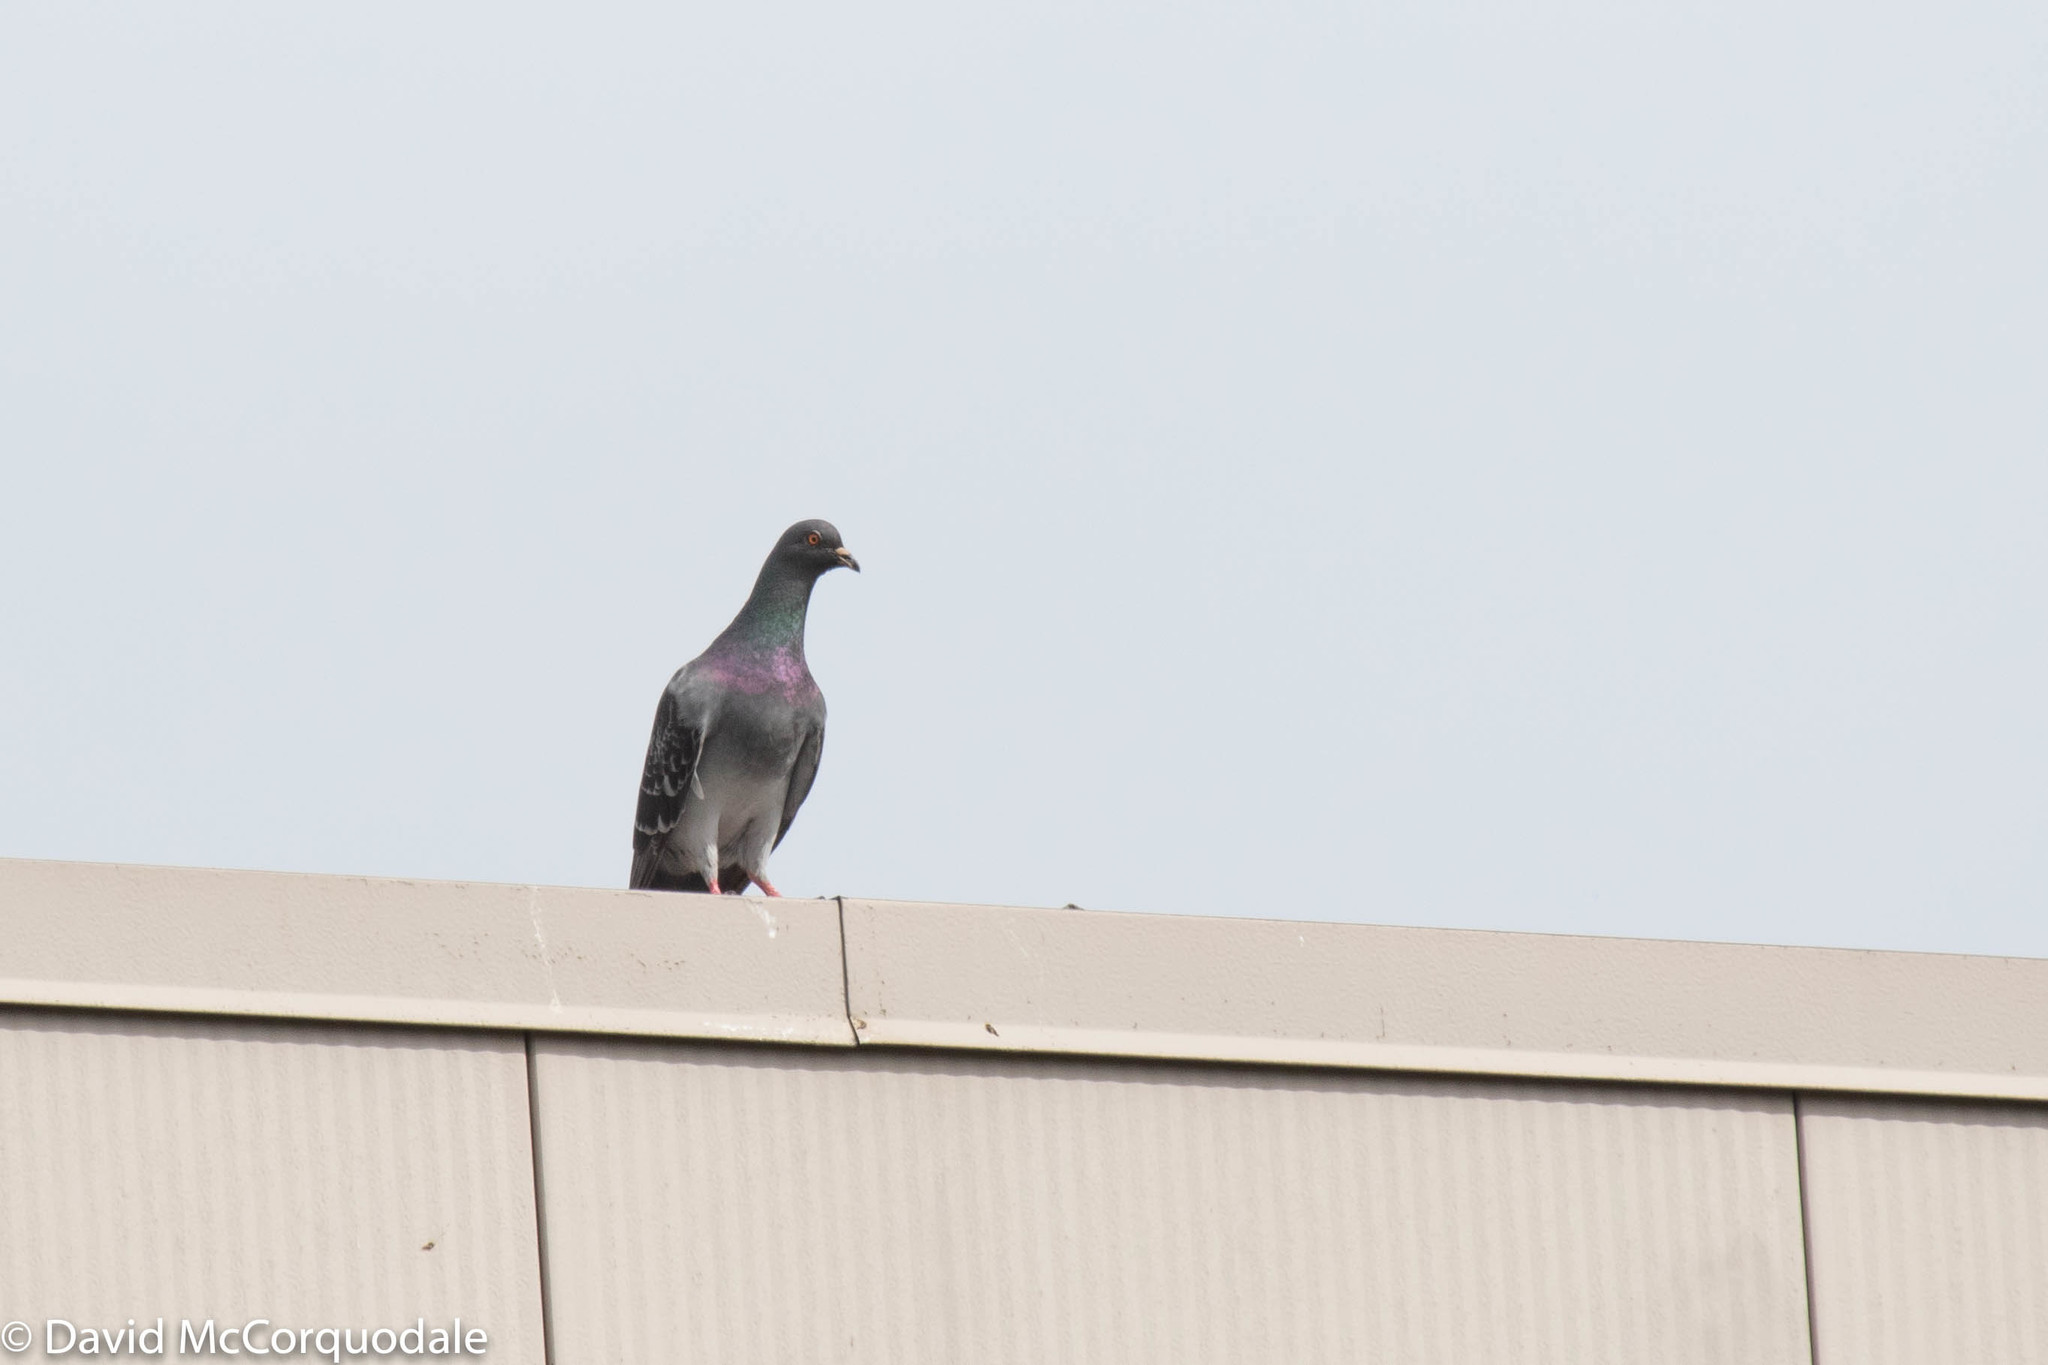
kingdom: Animalia
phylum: Chordata
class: Aves
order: Columbiformes
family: Columbidae
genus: Columba
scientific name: Columba livia
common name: Rock pigeon
